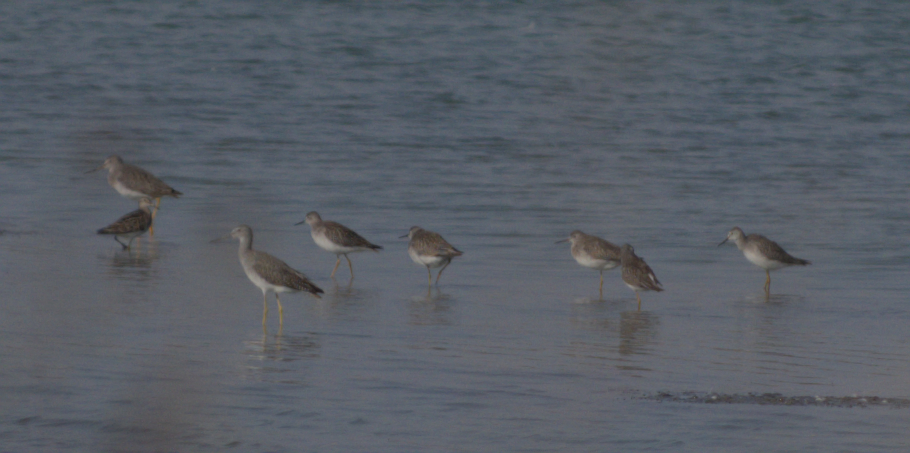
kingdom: Animalia
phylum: Chordata
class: Aves
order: Charadriiformes
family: Scolopacidae
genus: Tringa
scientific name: Tringa melanoleuca
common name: Greater yellowlegs
